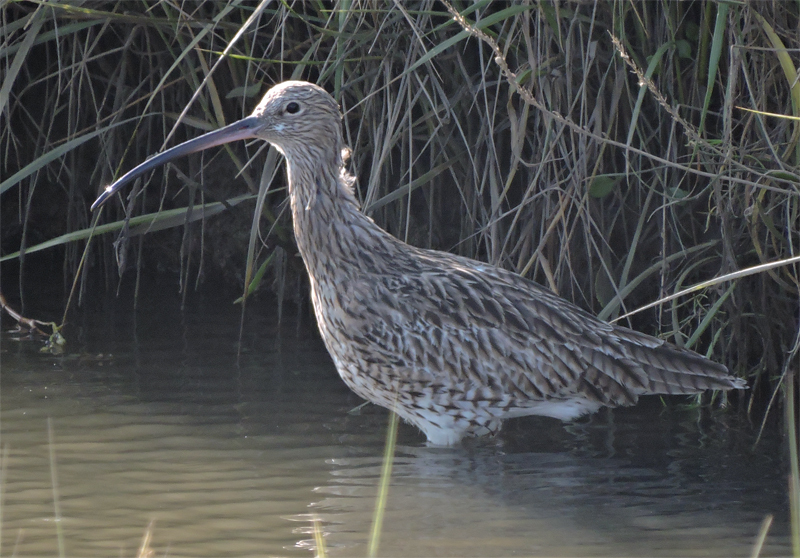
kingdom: Animalia
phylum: Chordata
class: Aves
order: Charadriiformes
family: Scolopacidae
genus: Numenius
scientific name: Numenius arquata
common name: Eurasian curlew
